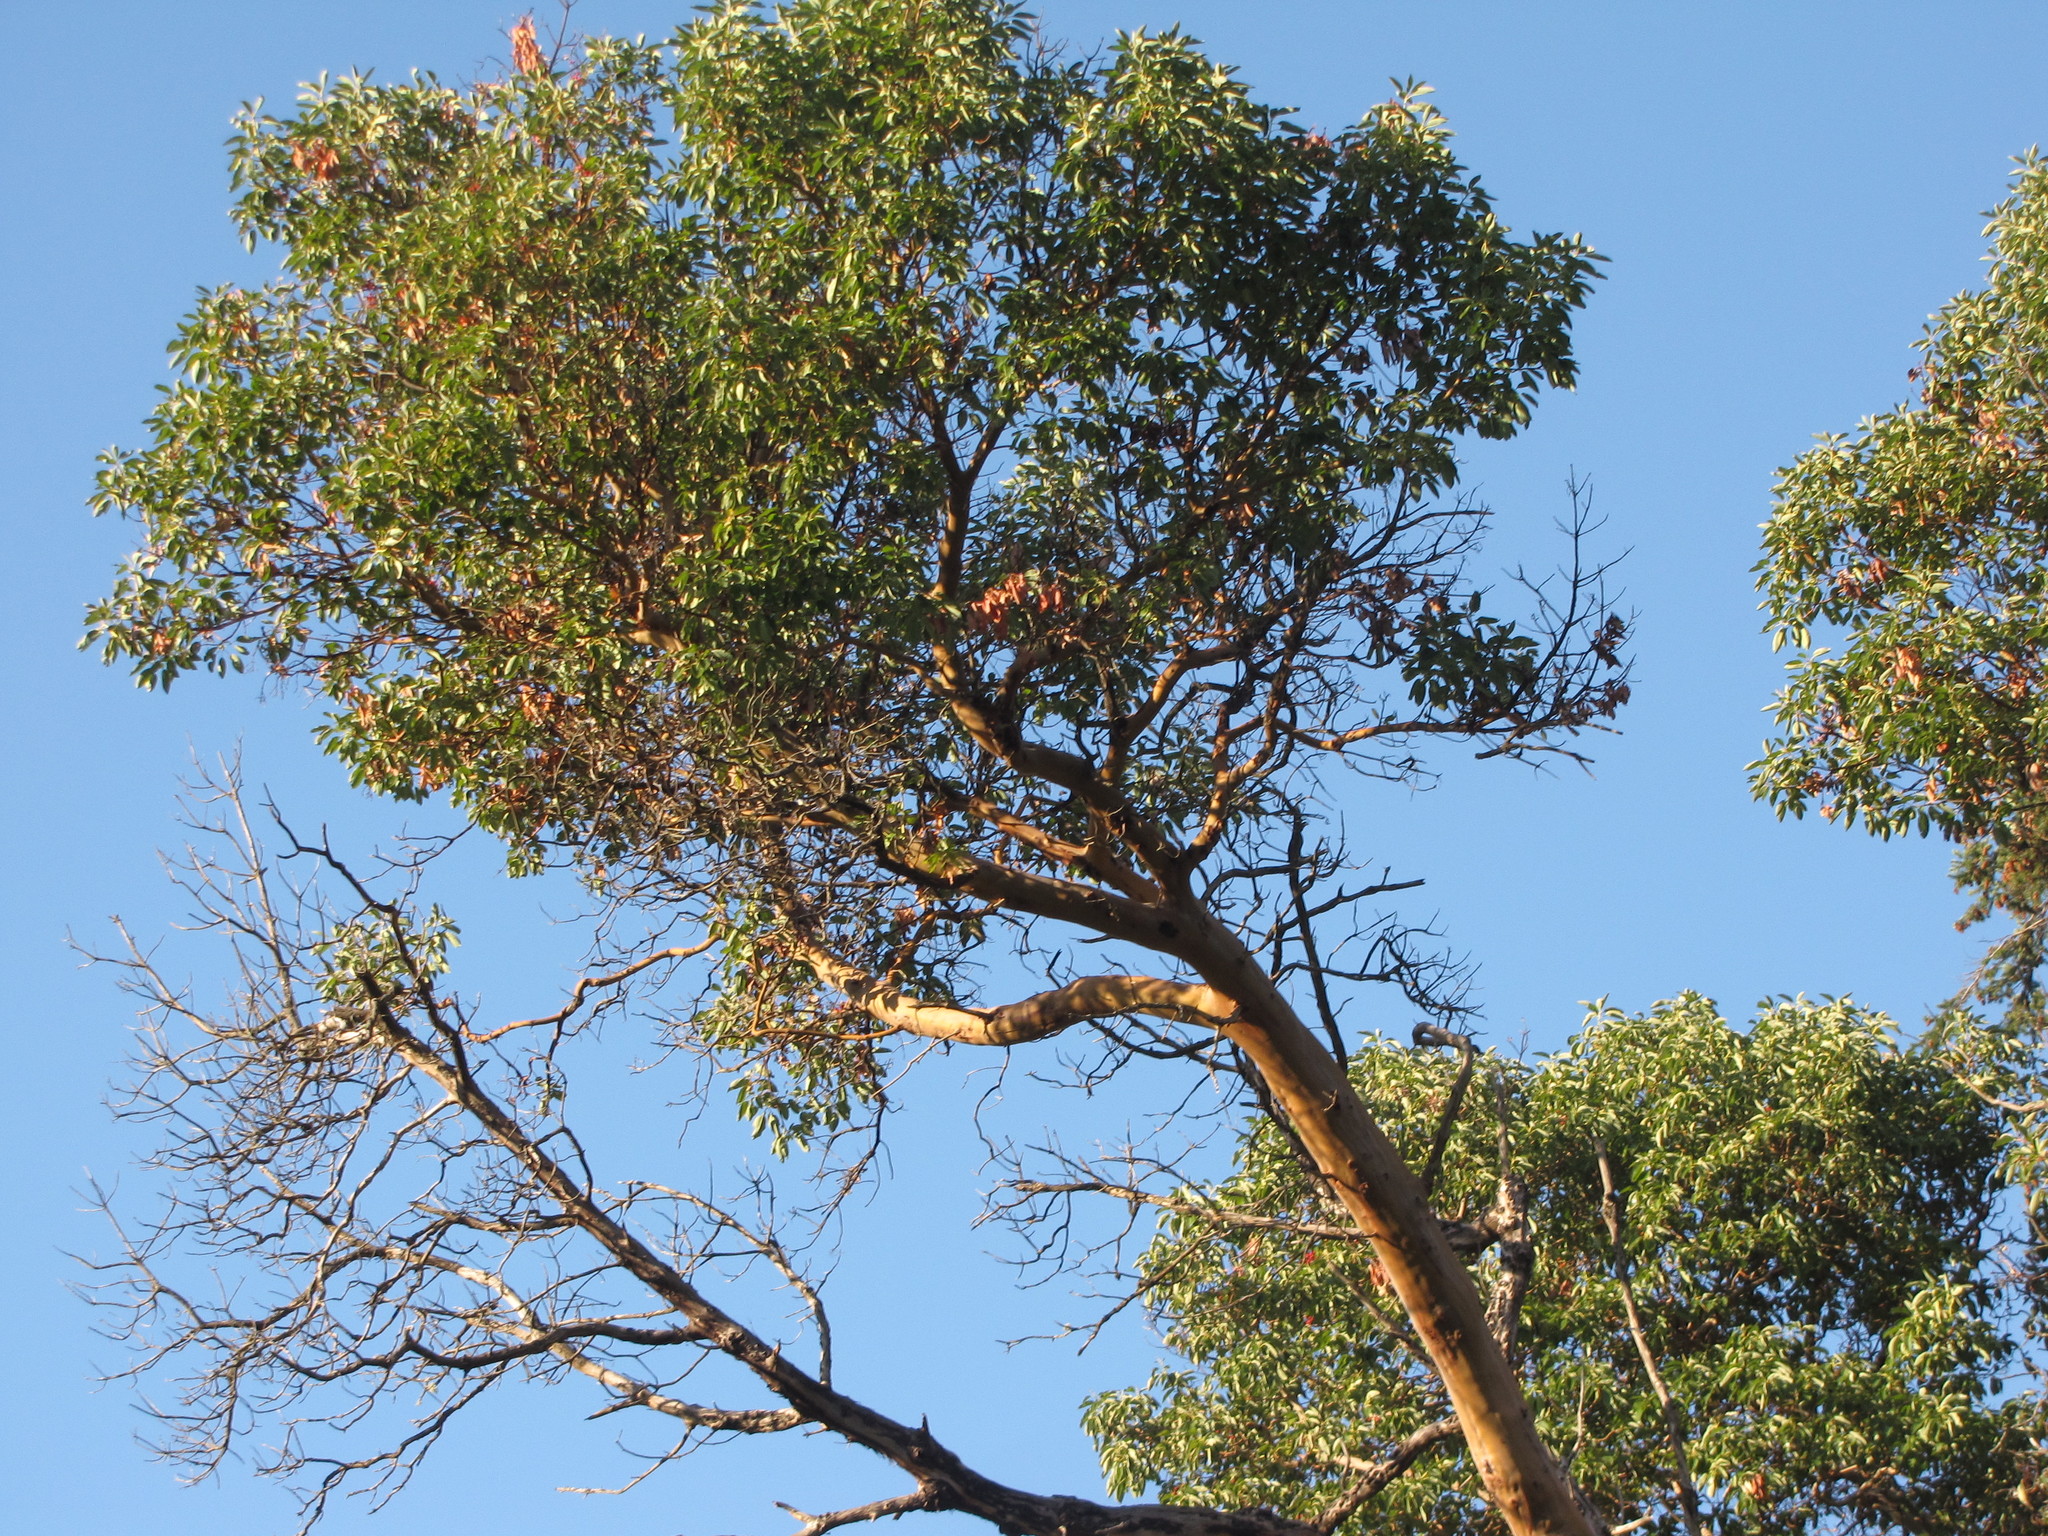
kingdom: Plantae
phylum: Tracheophyta
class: Magnoliopsida
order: Ericales
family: Ericaceae
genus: Arbutus
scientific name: Arbutus menziesii
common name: Pacific madrone
